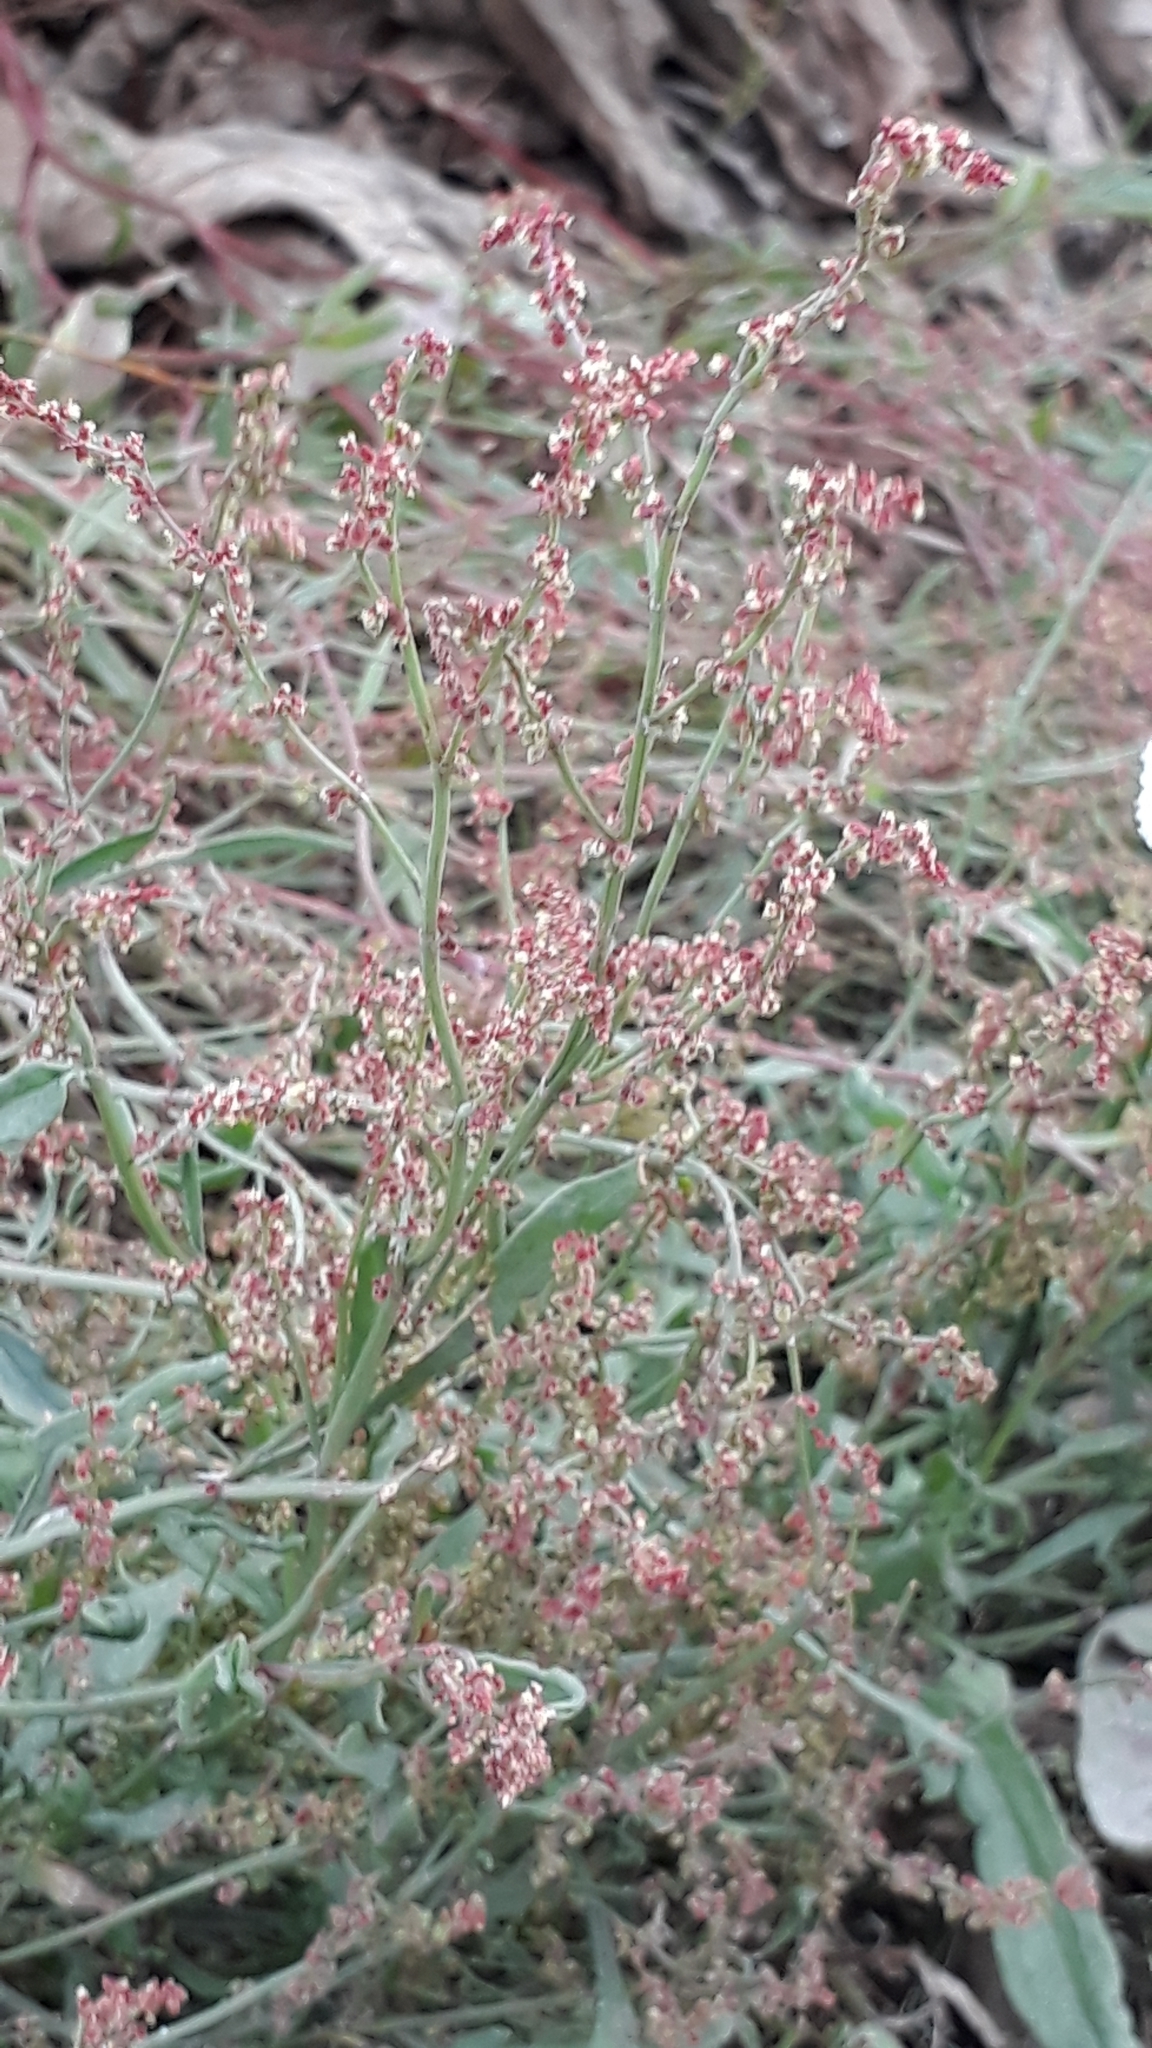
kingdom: Plantae
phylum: Tracheophyta
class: Magnoliopsida
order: Caryophyllales
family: Polygonaceae
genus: Rumex
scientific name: Rumex acetosella
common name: Common sheep sorrel
